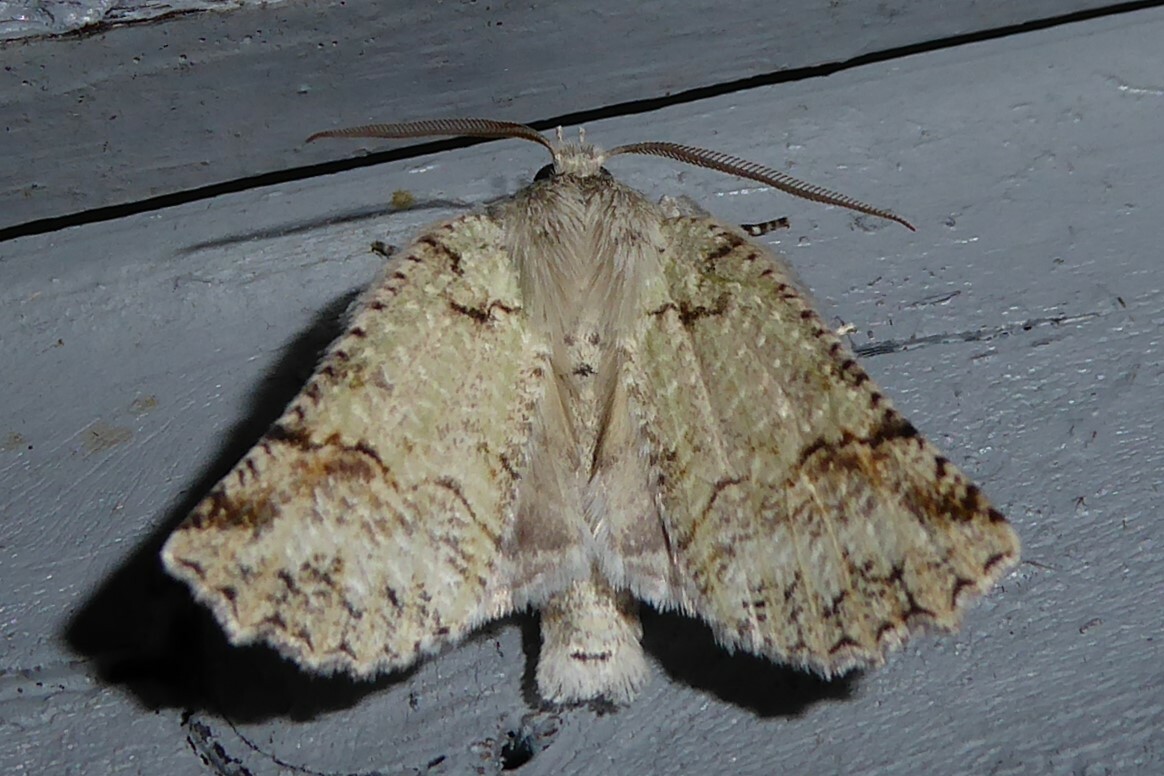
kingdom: Animalia
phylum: Arthropoda
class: Insecta
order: Lepidoptera
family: Geometridae
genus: Declana
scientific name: Declana floccosa
